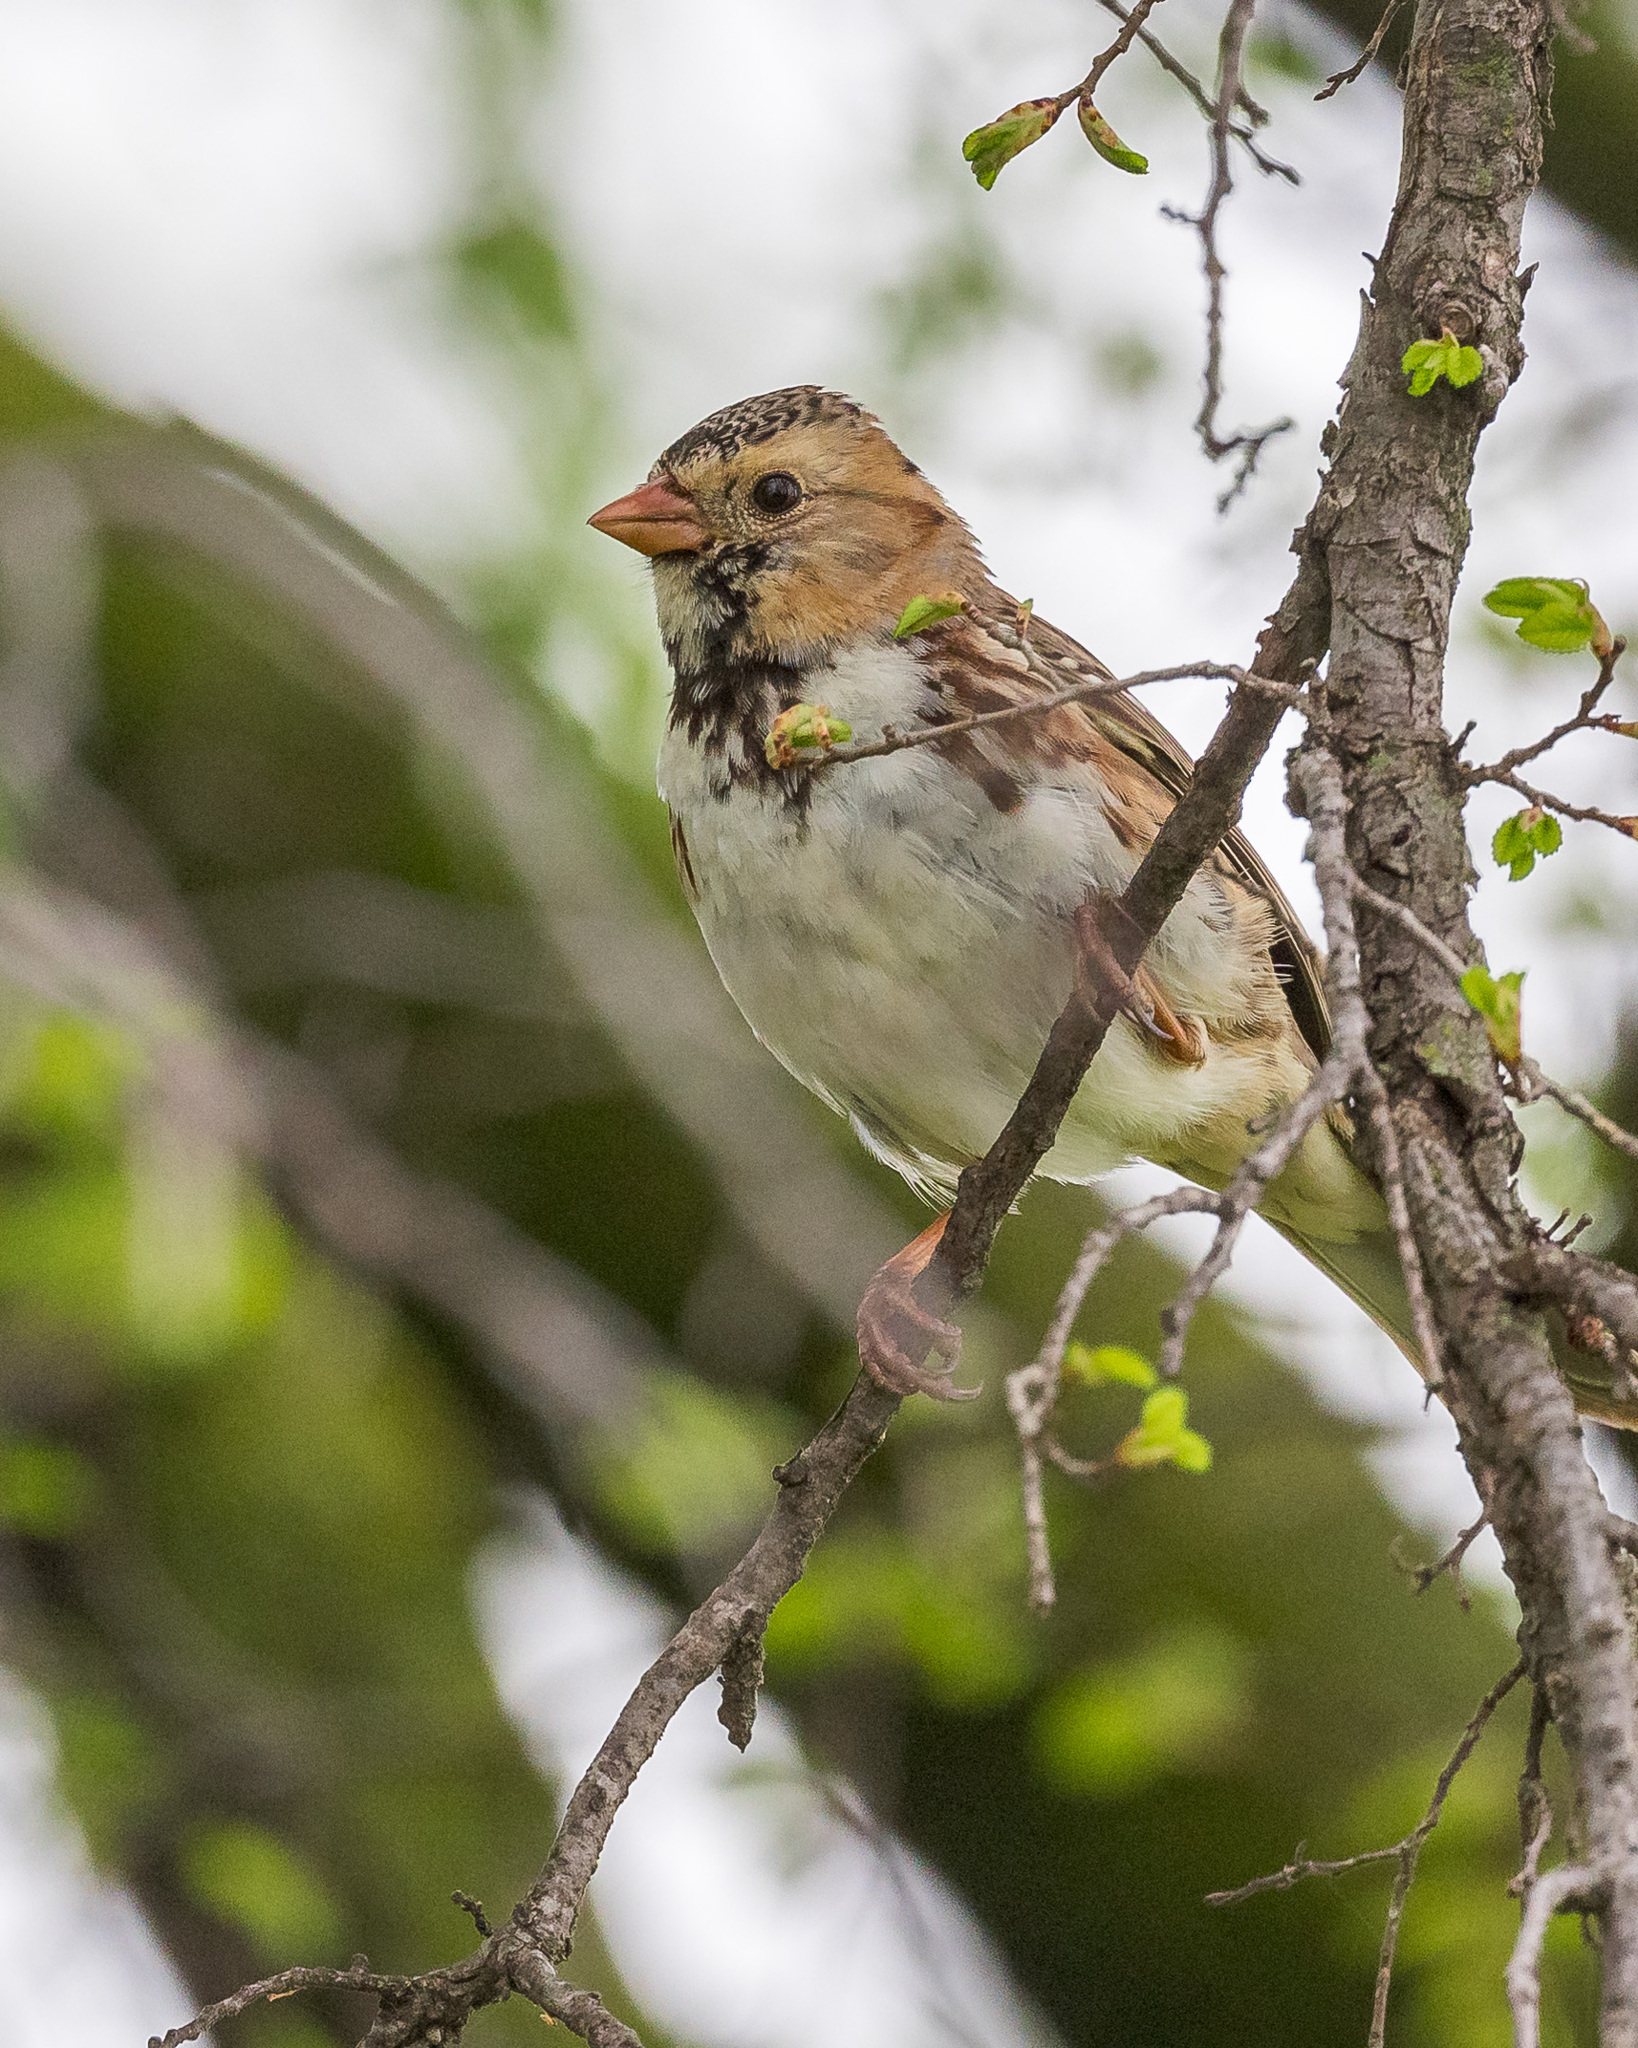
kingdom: Animalia
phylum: Chordata
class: Aves
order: Passeriformes
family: Passerellidae
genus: Zonotrichia
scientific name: Zonotrichia querula
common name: Harris's sparrow
